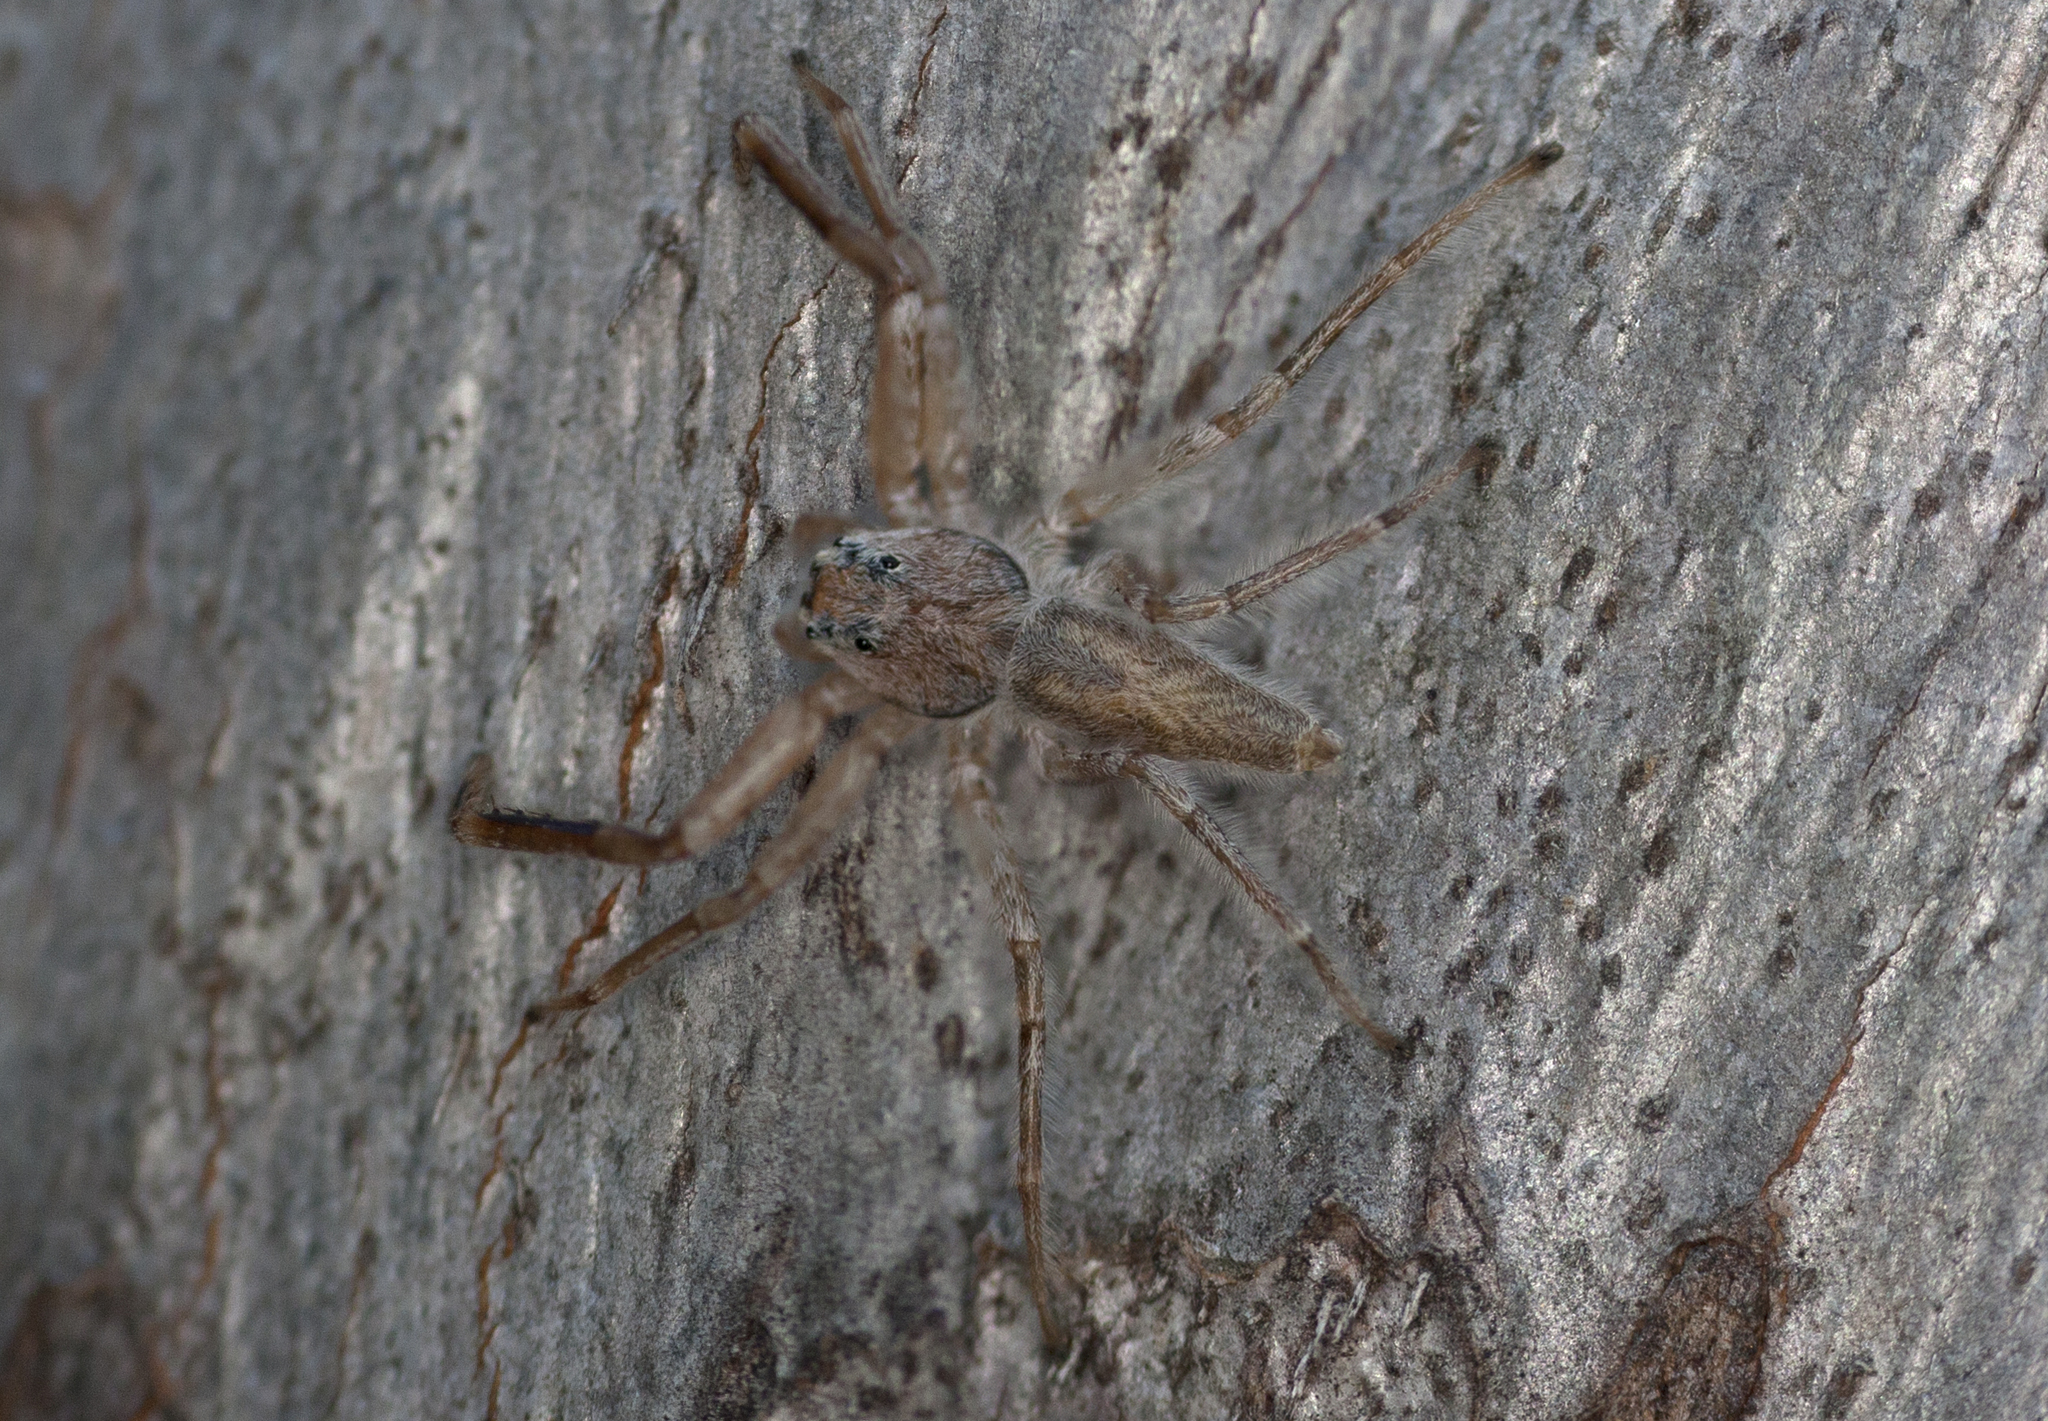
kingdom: Animalia
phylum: Arthropoda
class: Arachnida
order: Araneae
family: Salticidae
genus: Arasia
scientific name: Arasia mollicoma
